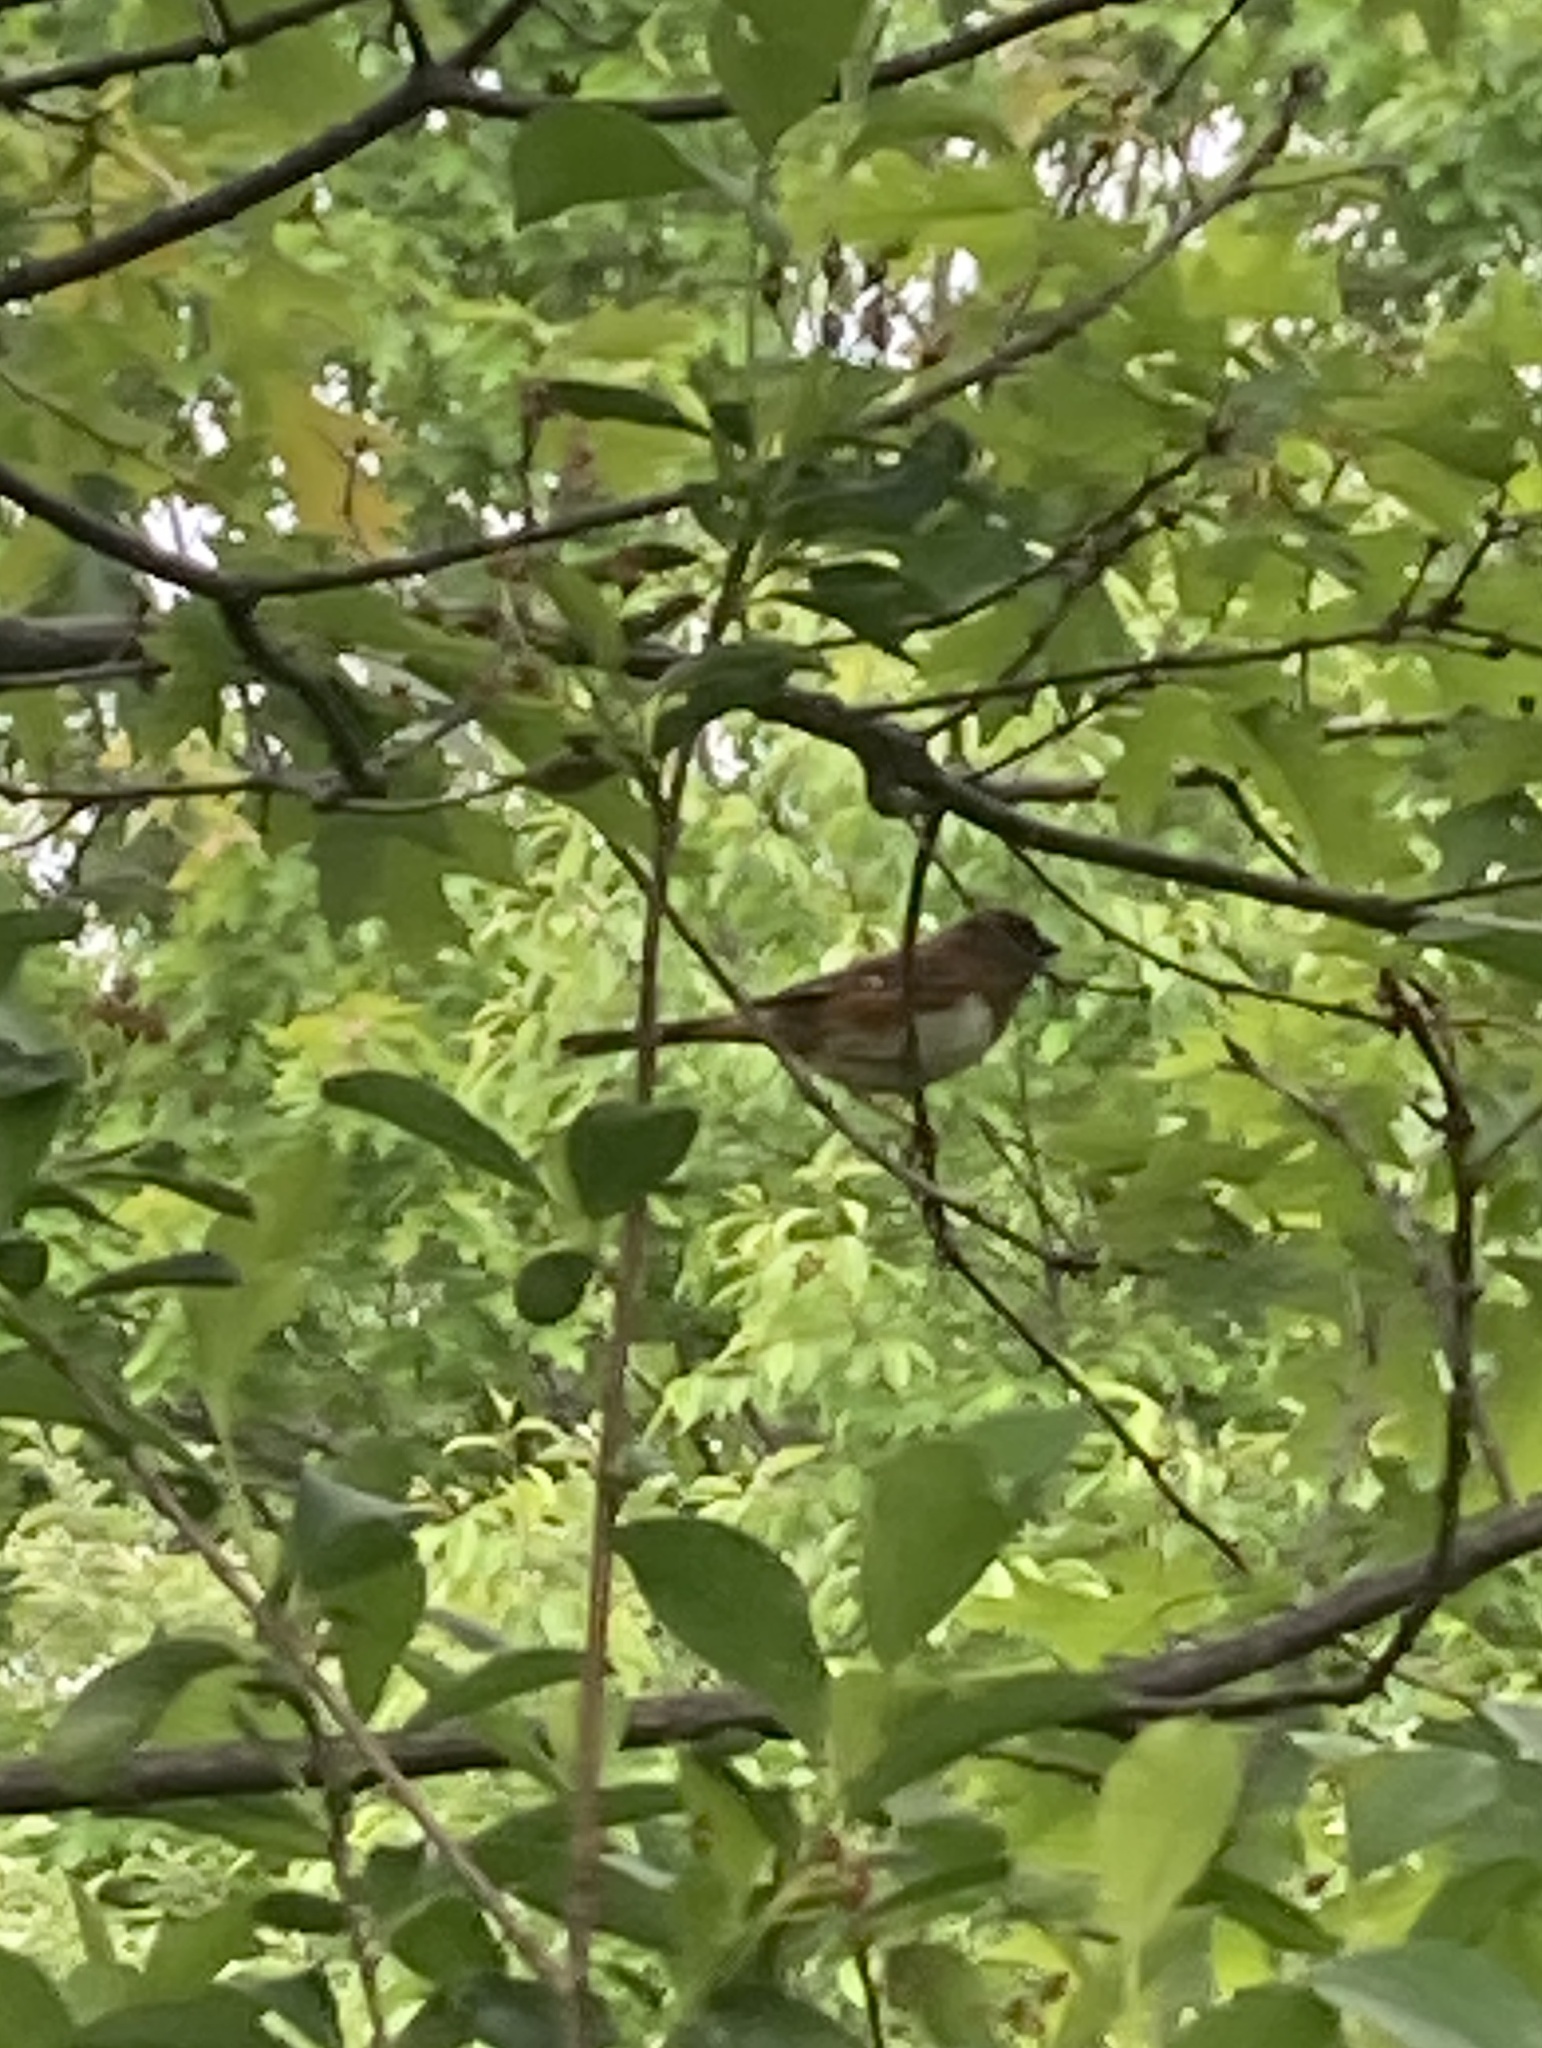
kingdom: Animalia
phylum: Chordata
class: Aves
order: Passeriformes
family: Passerellidae
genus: Pipilo
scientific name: Pipilo erythrophthalmus
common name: Eastern towhee
